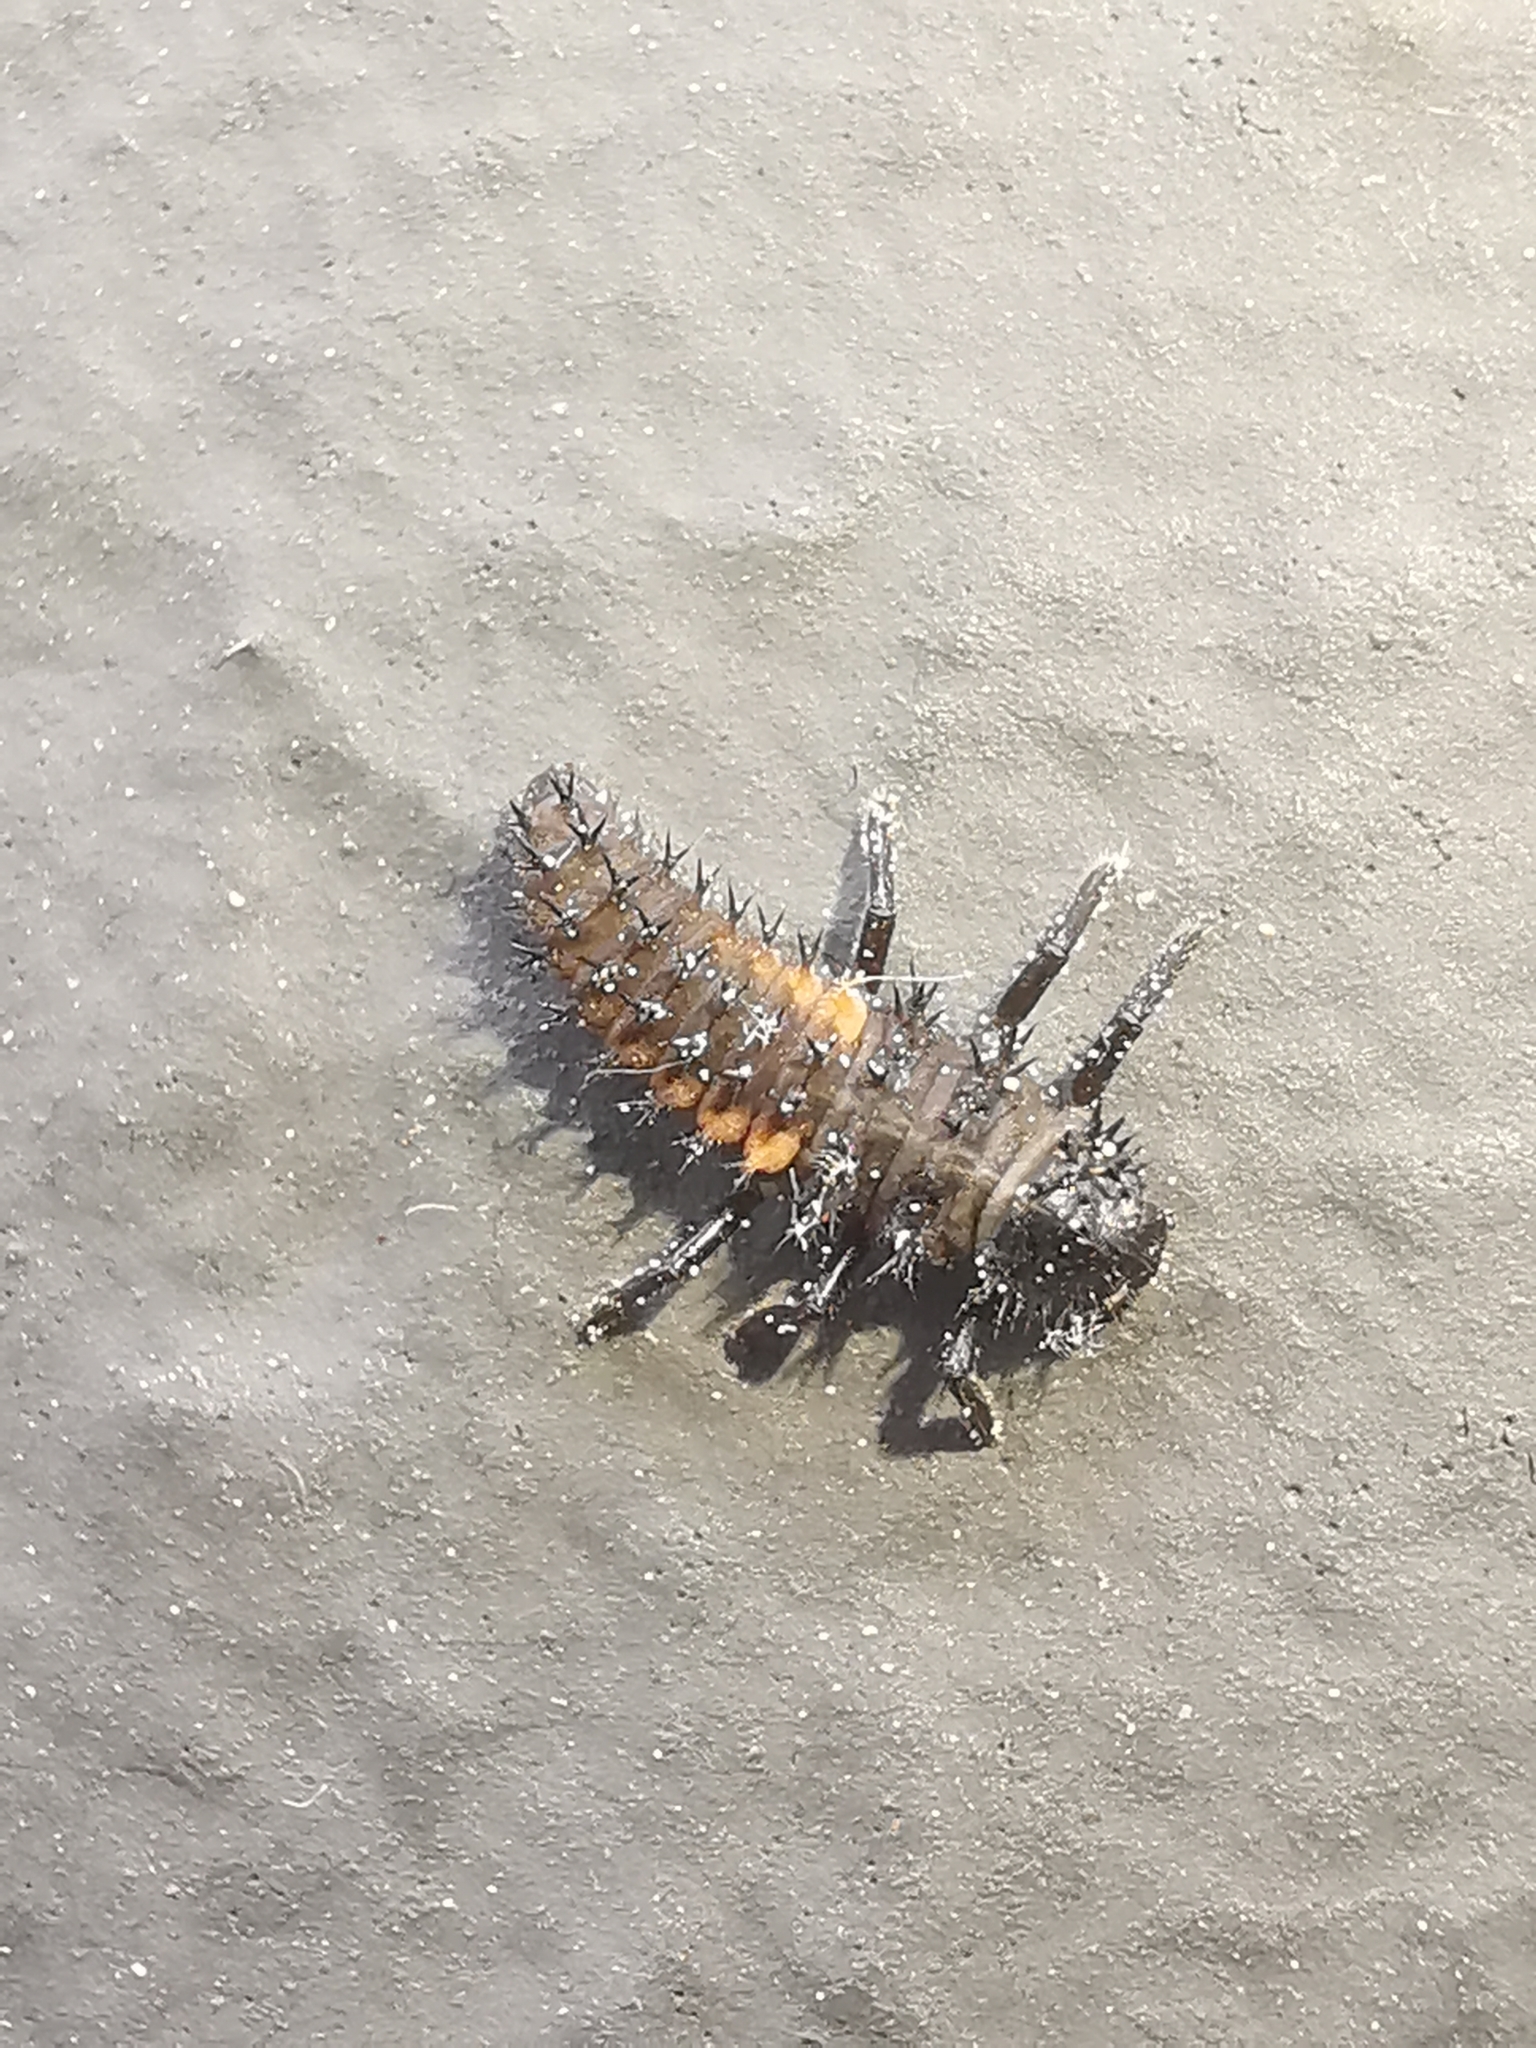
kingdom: Animalia
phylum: Arthropoda
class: Insecta
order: Coleoptera
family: Coccinellidae
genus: Harmonia
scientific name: Harmonia axyridis
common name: Harlequin ladybird
